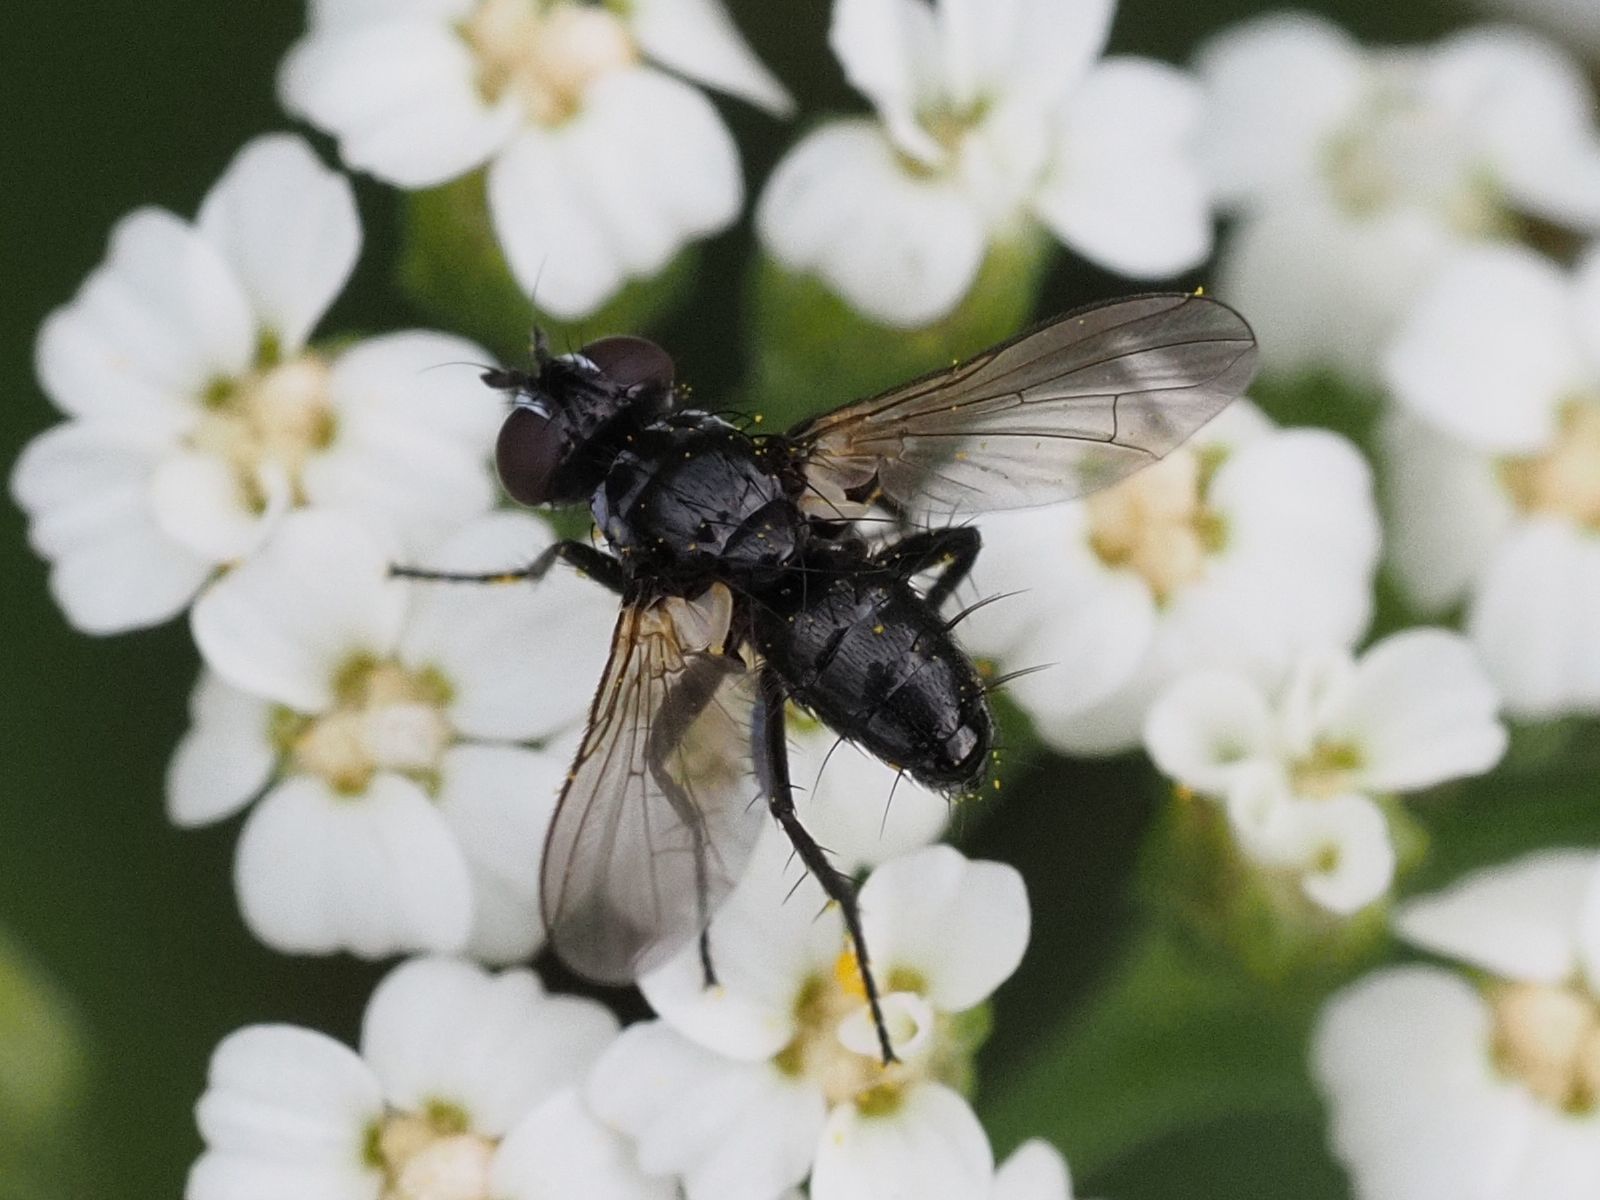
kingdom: Animalia
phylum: Arthropoda
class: Insecta
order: Diptera
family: Tachinidae
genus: Phania
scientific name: Phania funesta
